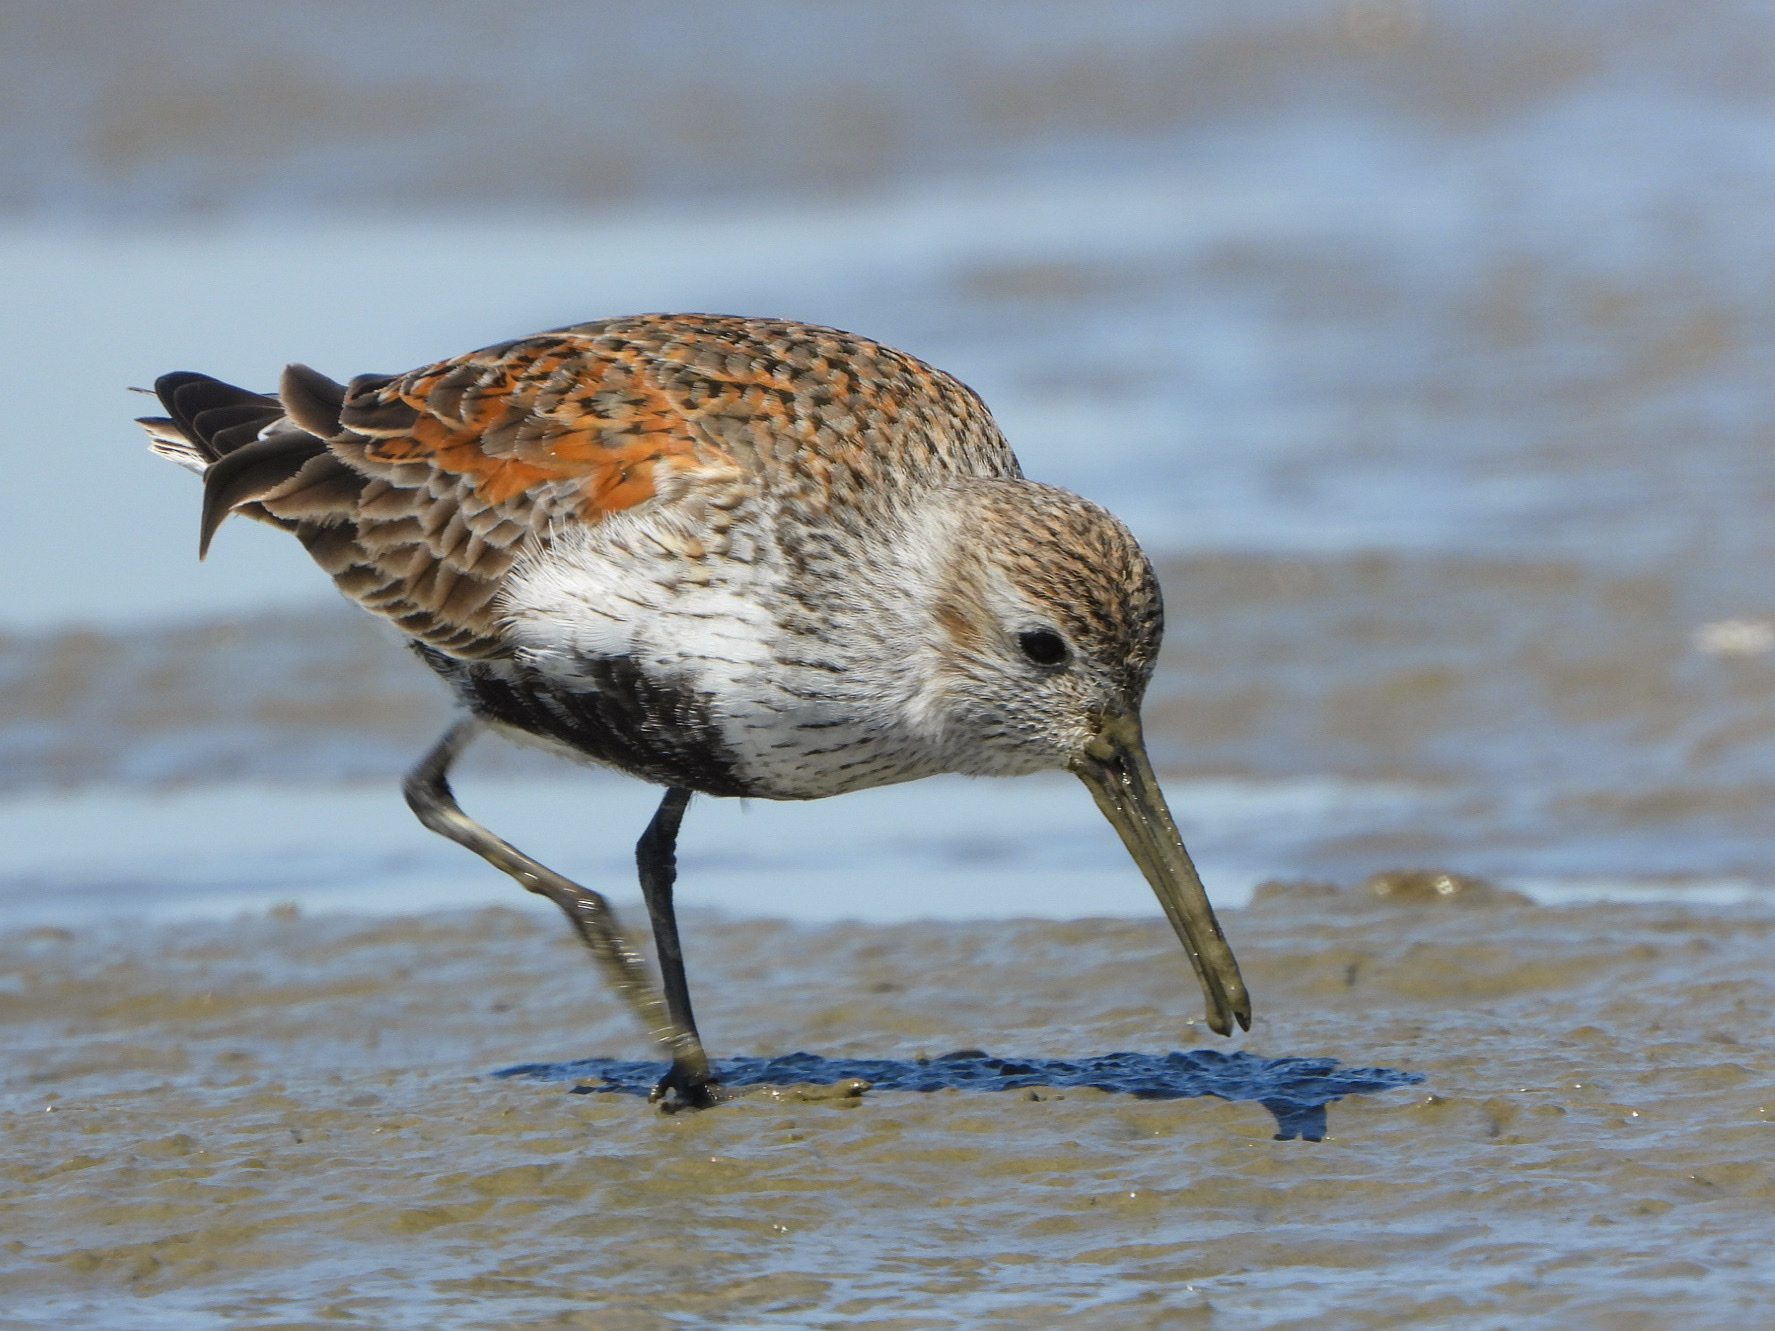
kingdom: Animalia
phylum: Chordata
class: Aves
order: Charadriiformes
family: Scolopacidae
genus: Calidris
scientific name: Calidris alpina
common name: Dunlin
